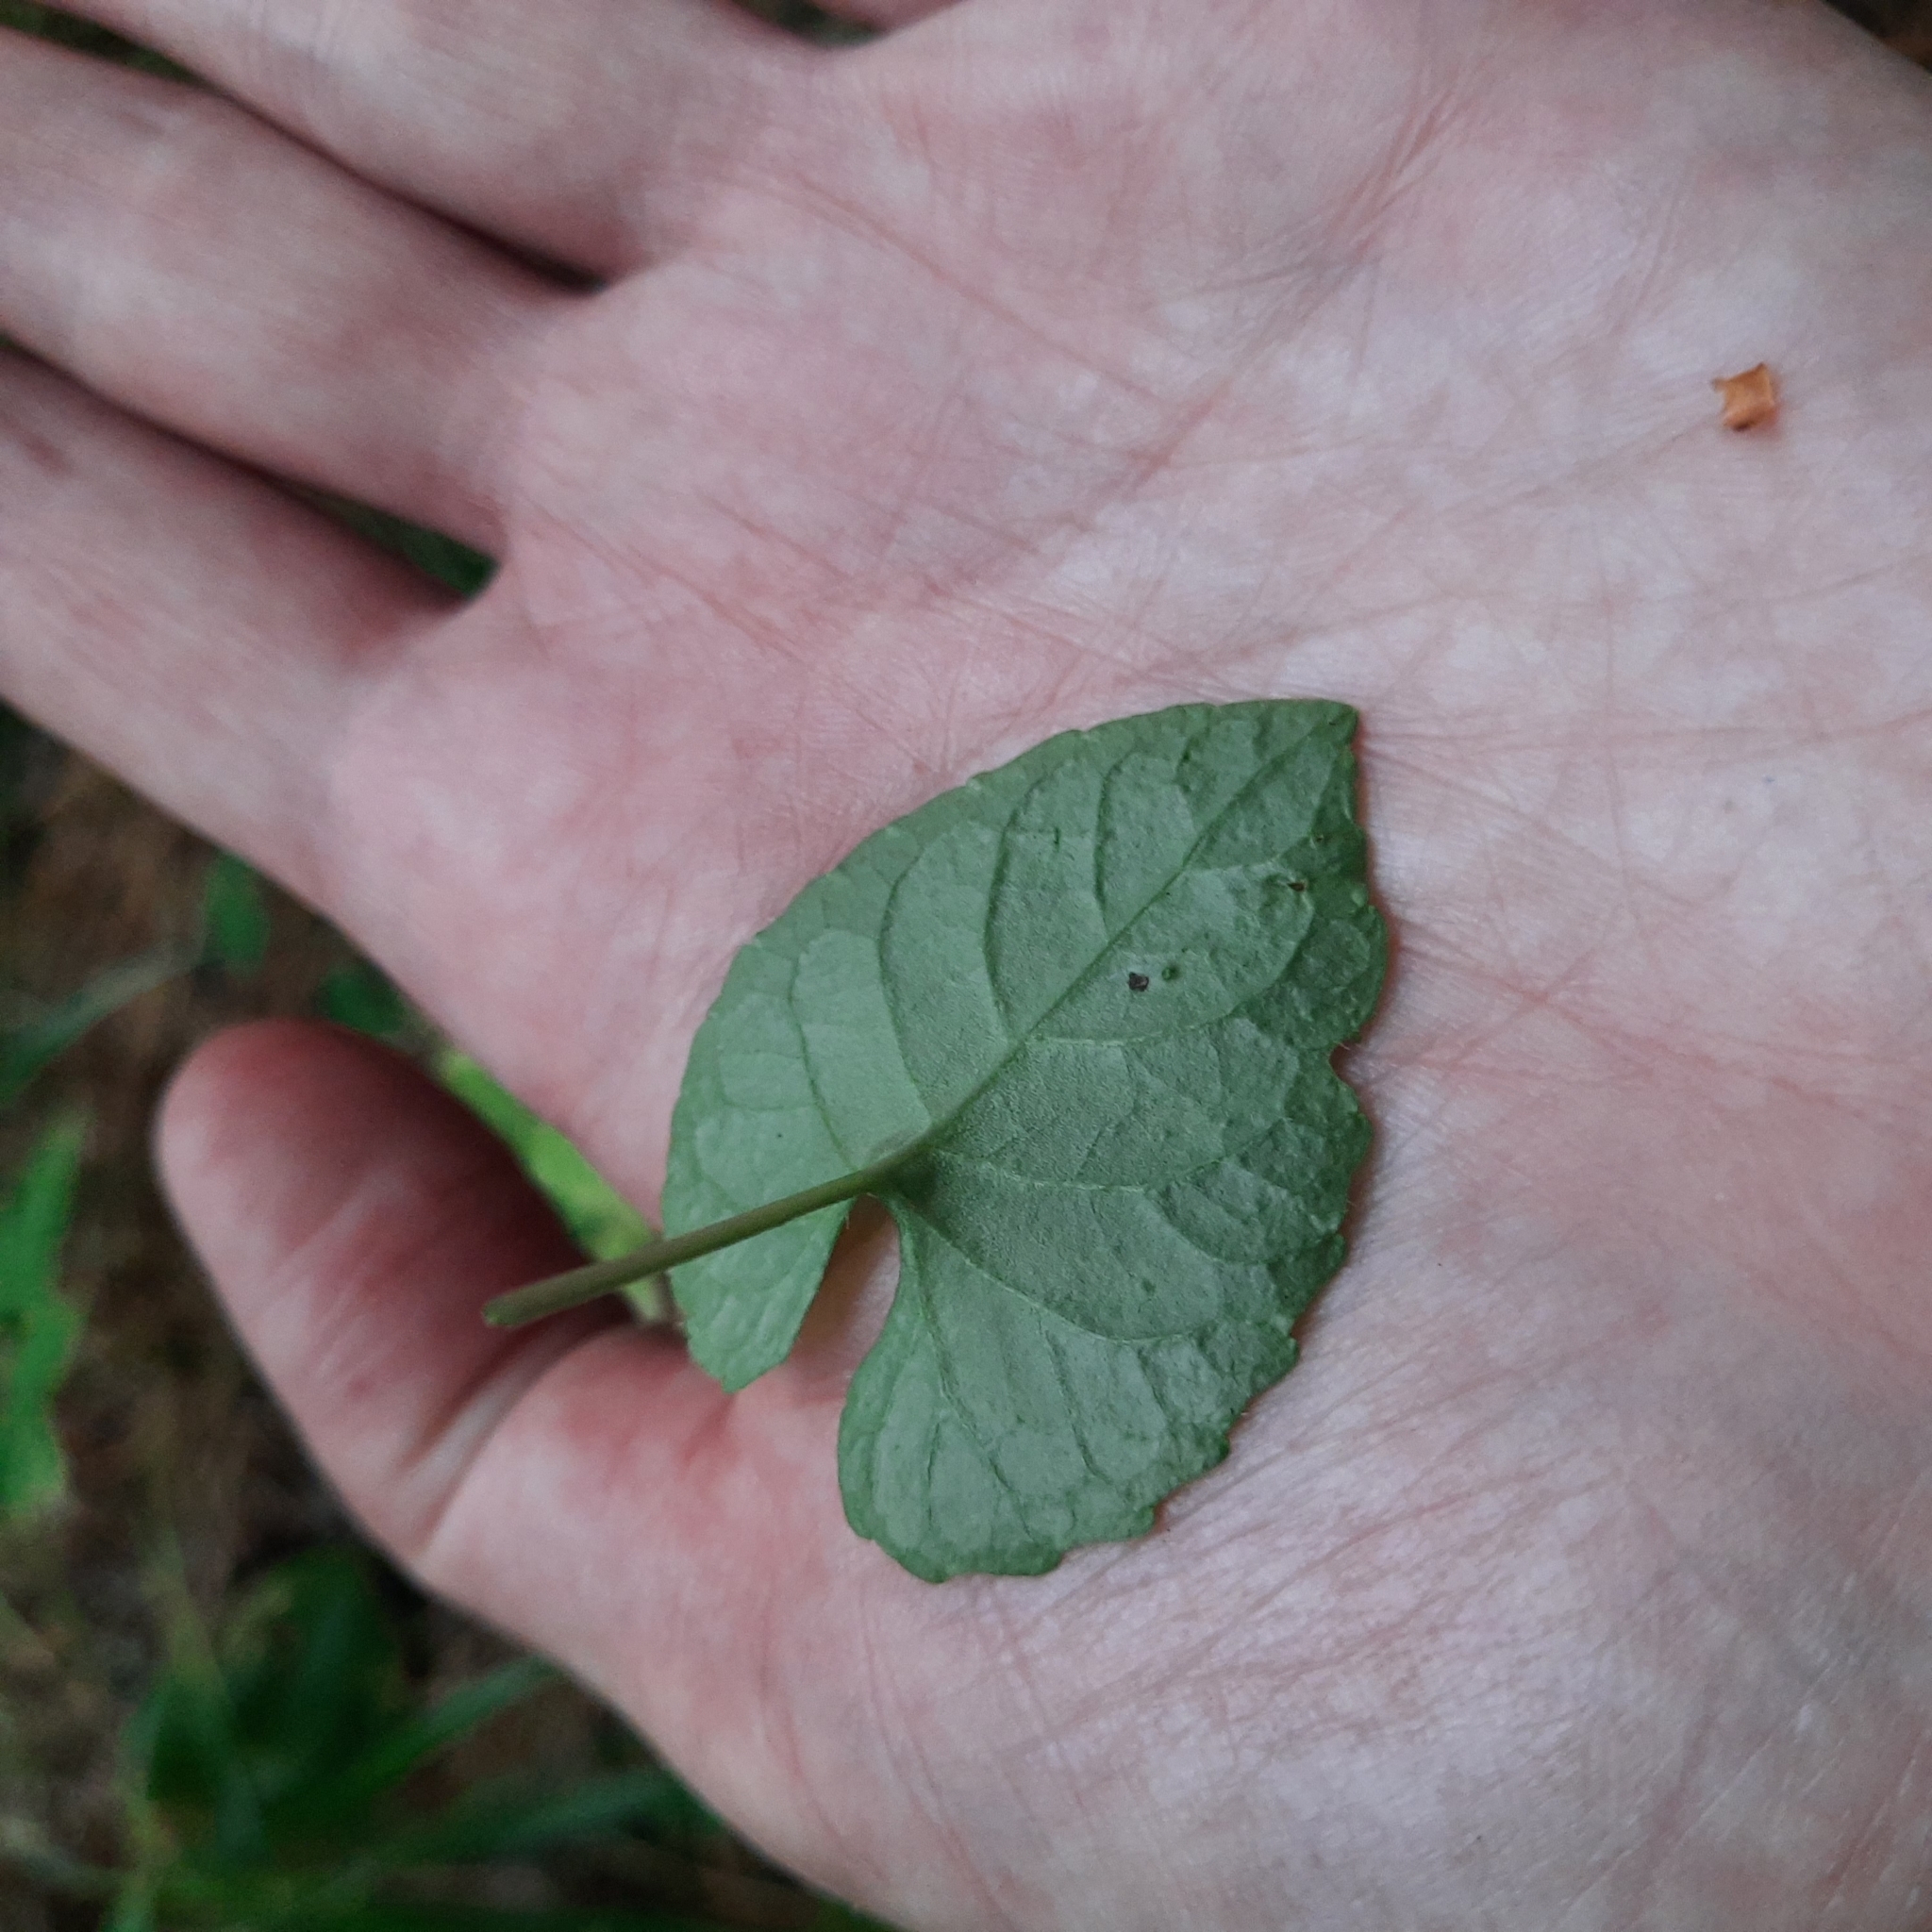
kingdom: Plantae
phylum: Tracheophyta
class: Magnoliopsida
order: Malpighiales
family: Violaceae
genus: Viola
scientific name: Viola selkirkii
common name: Selkirk's violet
